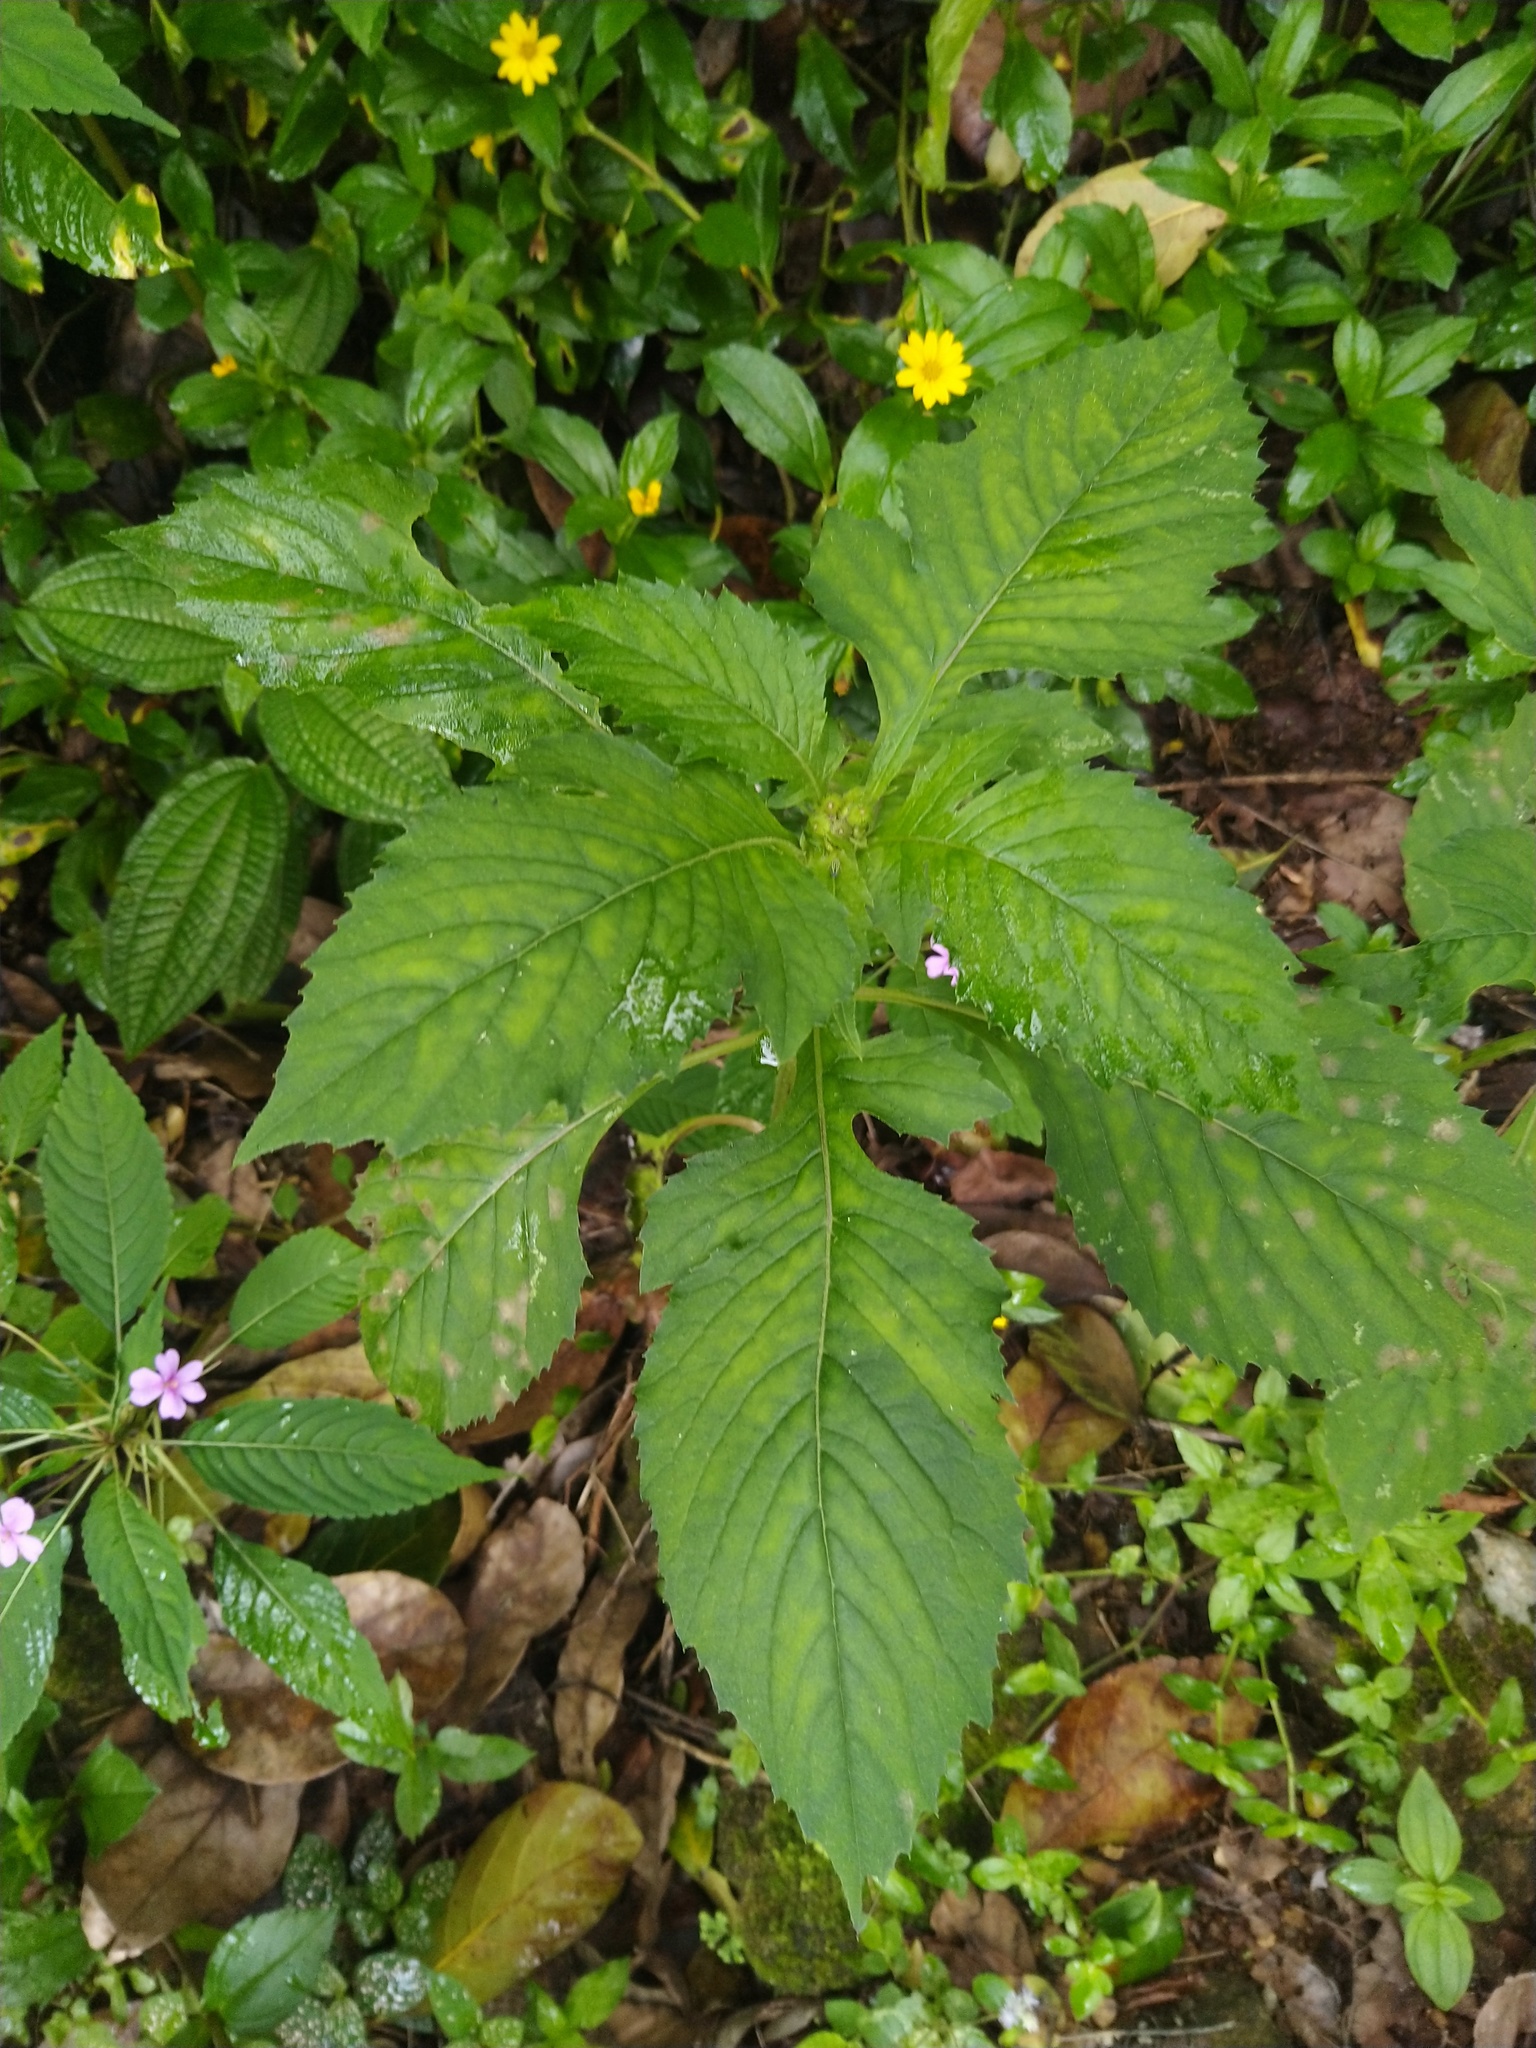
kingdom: Plantae
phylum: Tracheophyta
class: Magnoliopsida
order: Asterales
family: Asteraceae
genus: Crassocephalum
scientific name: Crassocephalum crepidioides
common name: Redflower ragleaf
